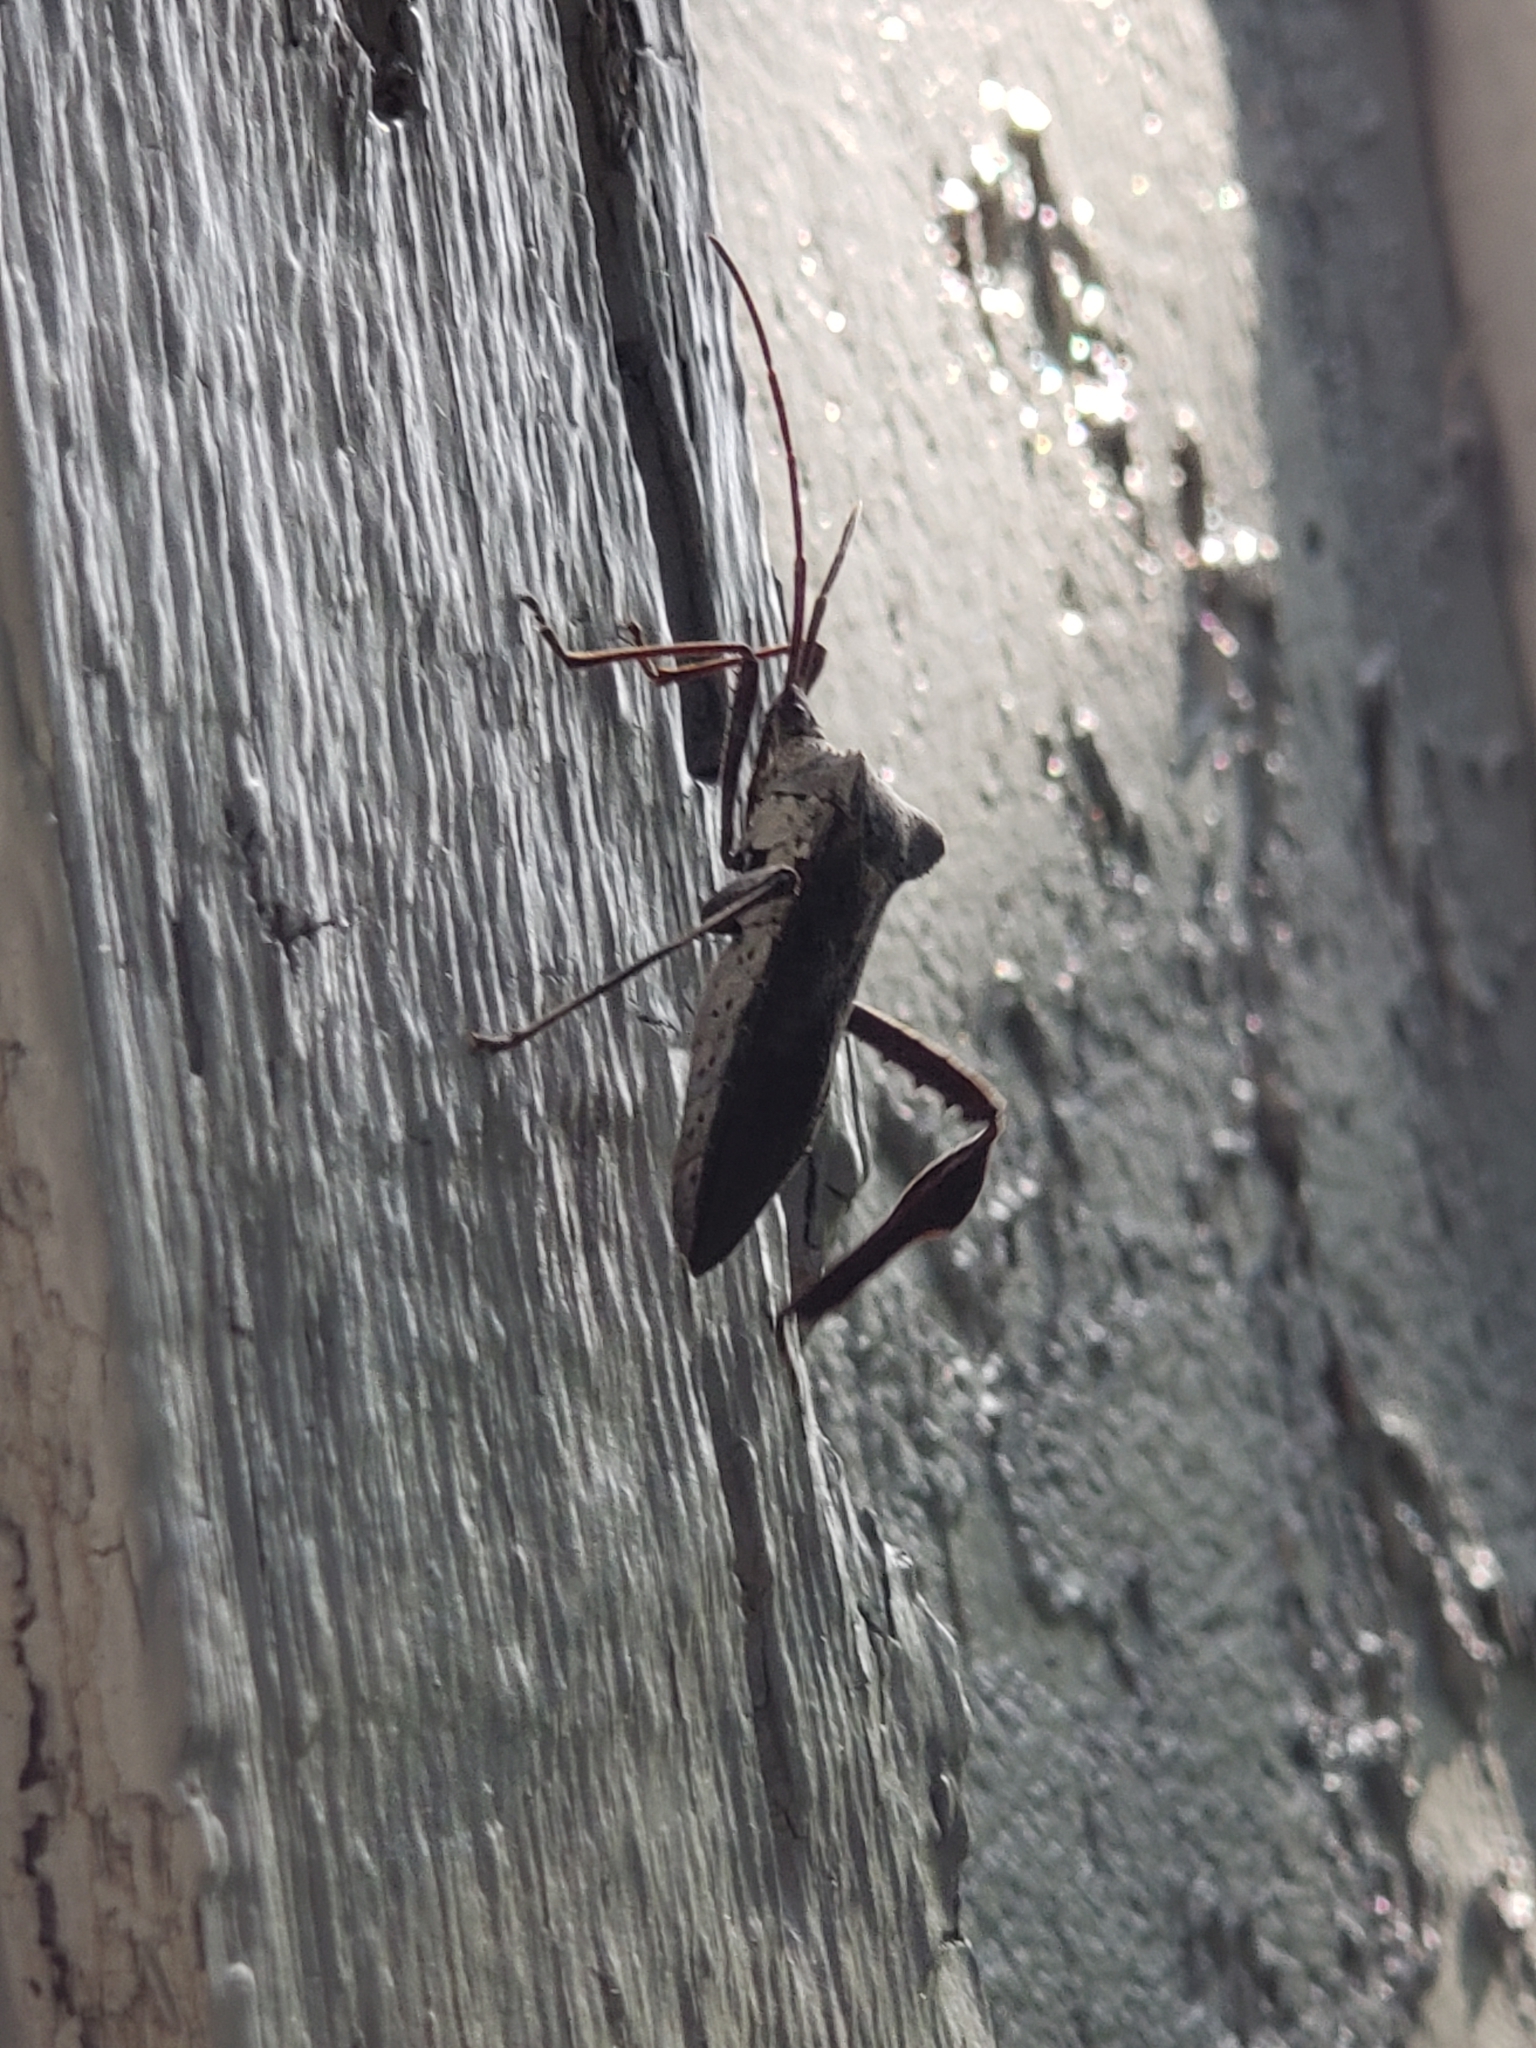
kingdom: Animalia
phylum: Arthropoda
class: Insecta
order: Hemiptera
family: Coreidae
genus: Acanthocephala
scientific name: Acanthocephala declivis
